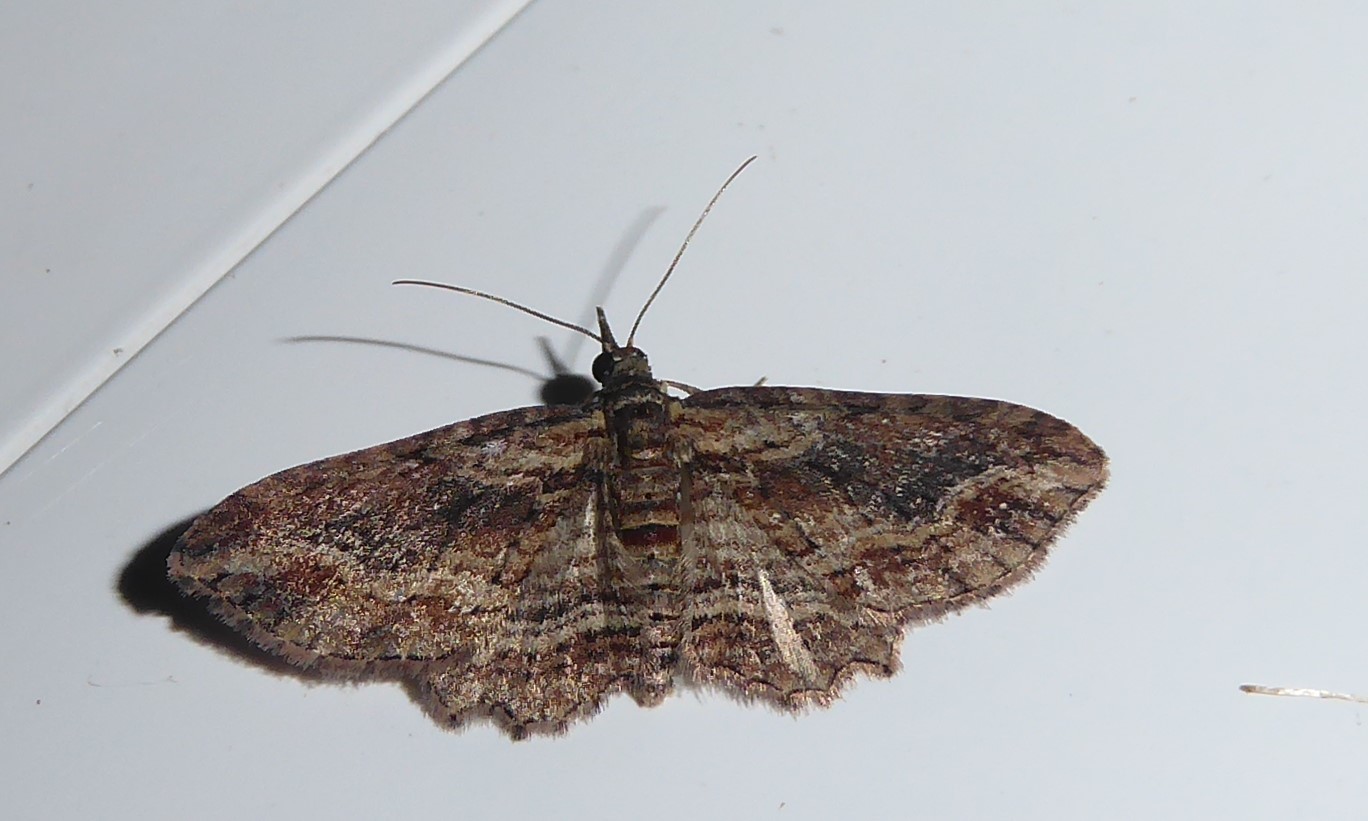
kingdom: Animalia
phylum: Arthropoda
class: Insecta
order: Lepidoptera
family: Geometridae
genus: Chloroclystis
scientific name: Chloroclystis filata
